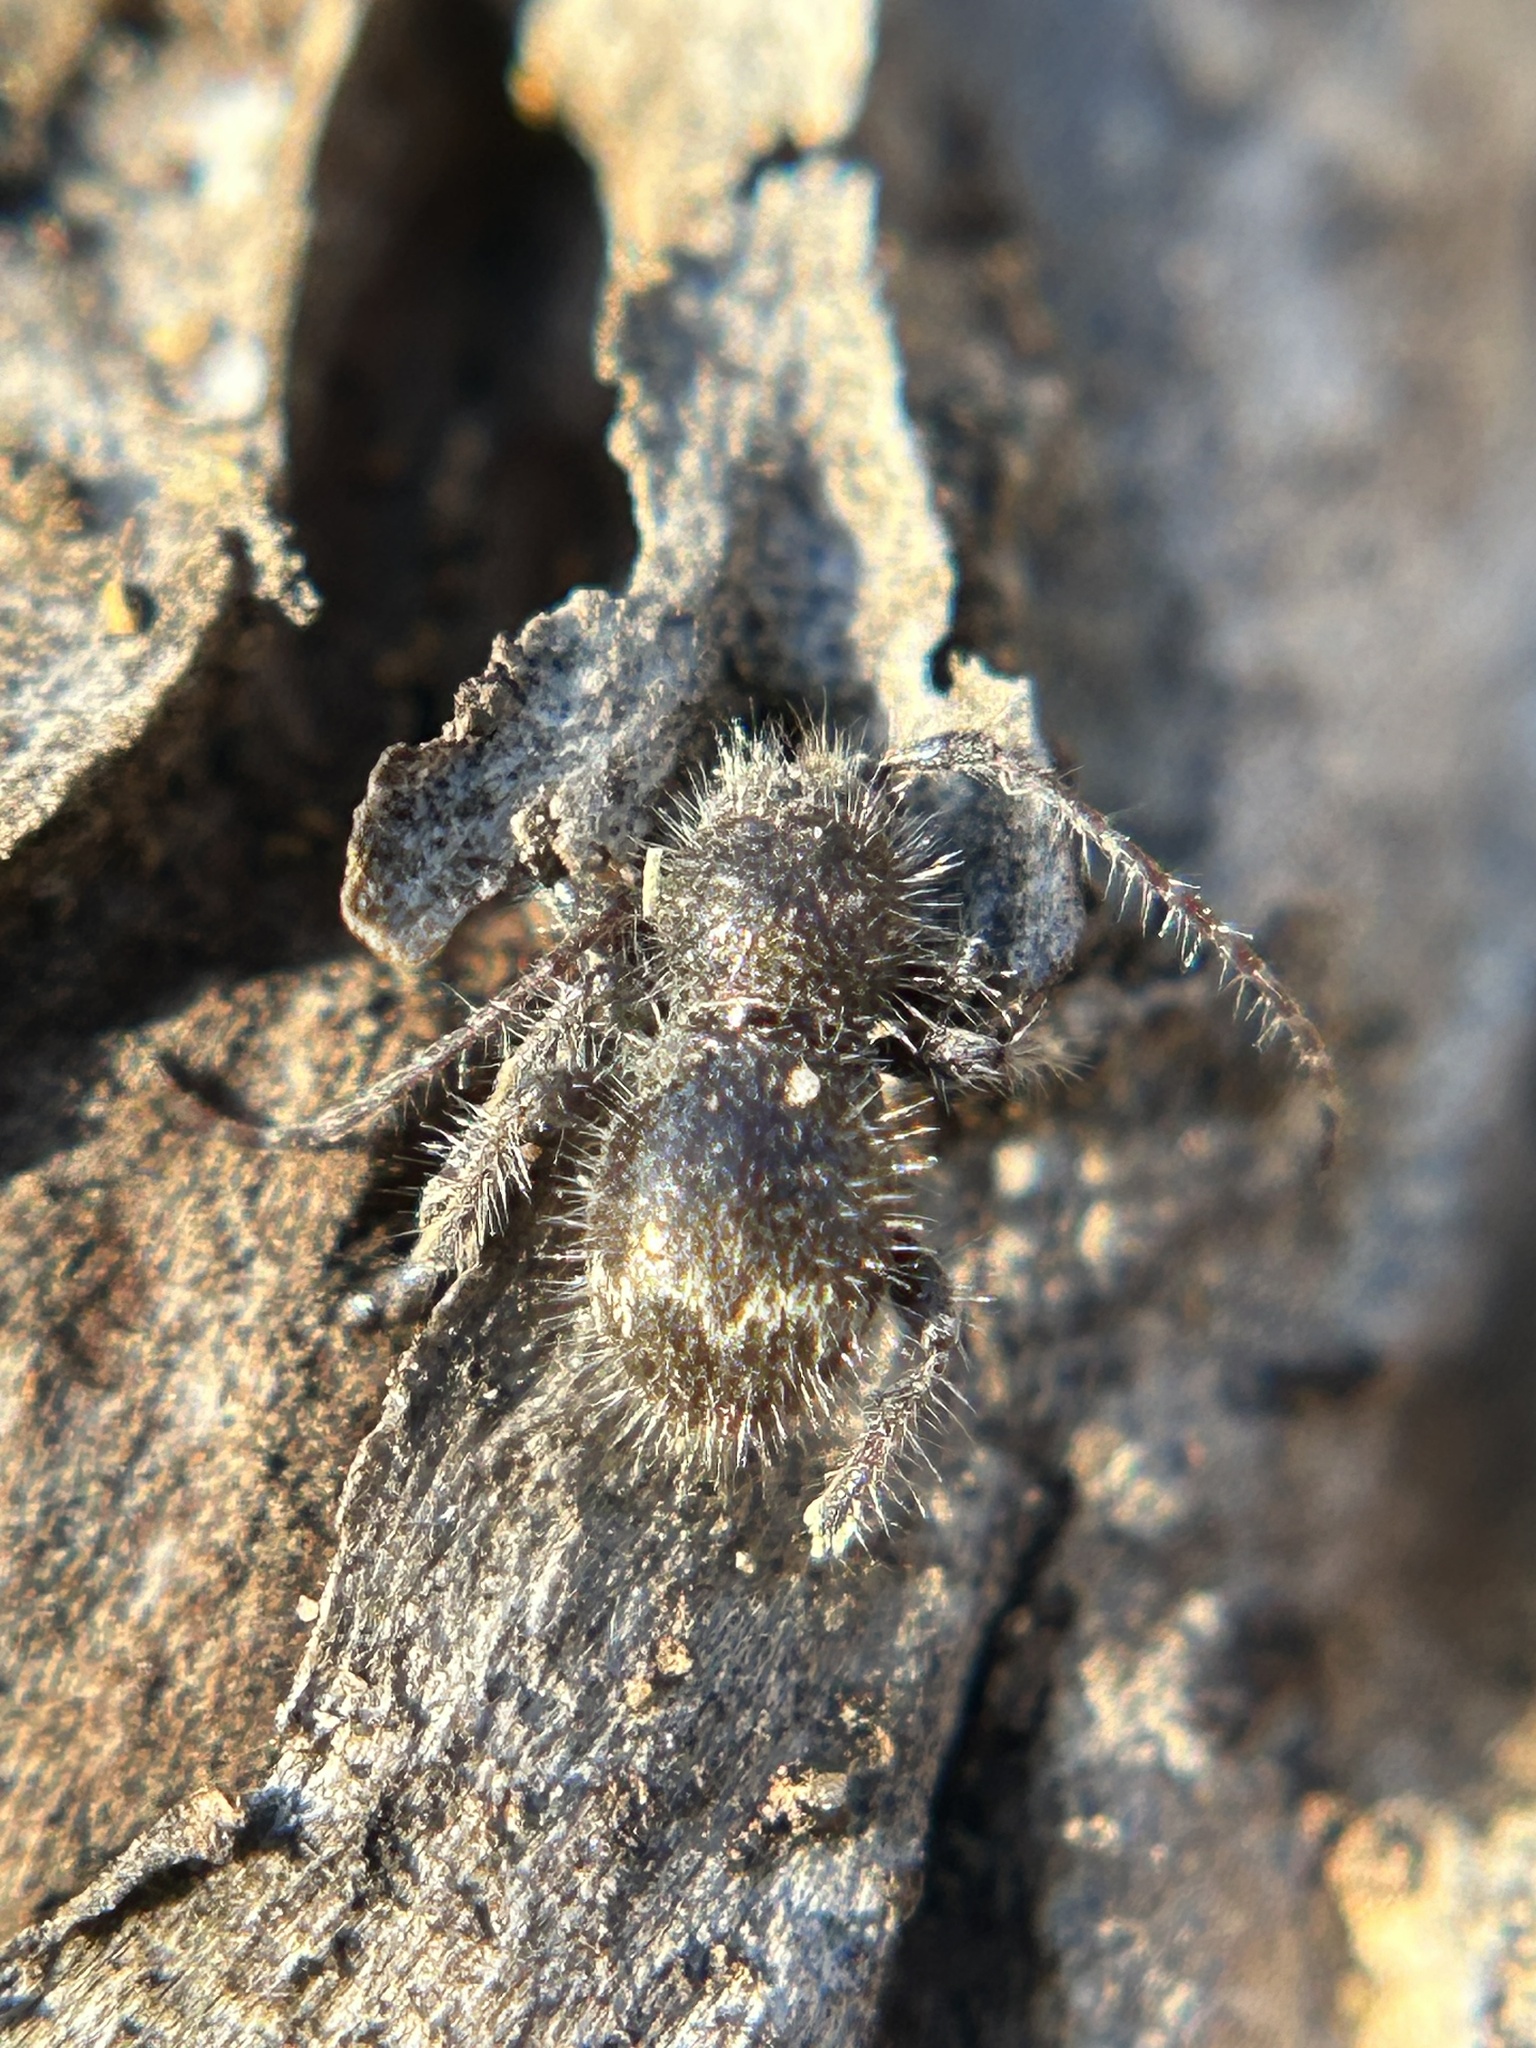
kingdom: Animalia
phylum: Arthropoda
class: Insecta
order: Coleoptera
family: Cerambycidae
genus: Ipochus
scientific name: Ipochus fasciatus
